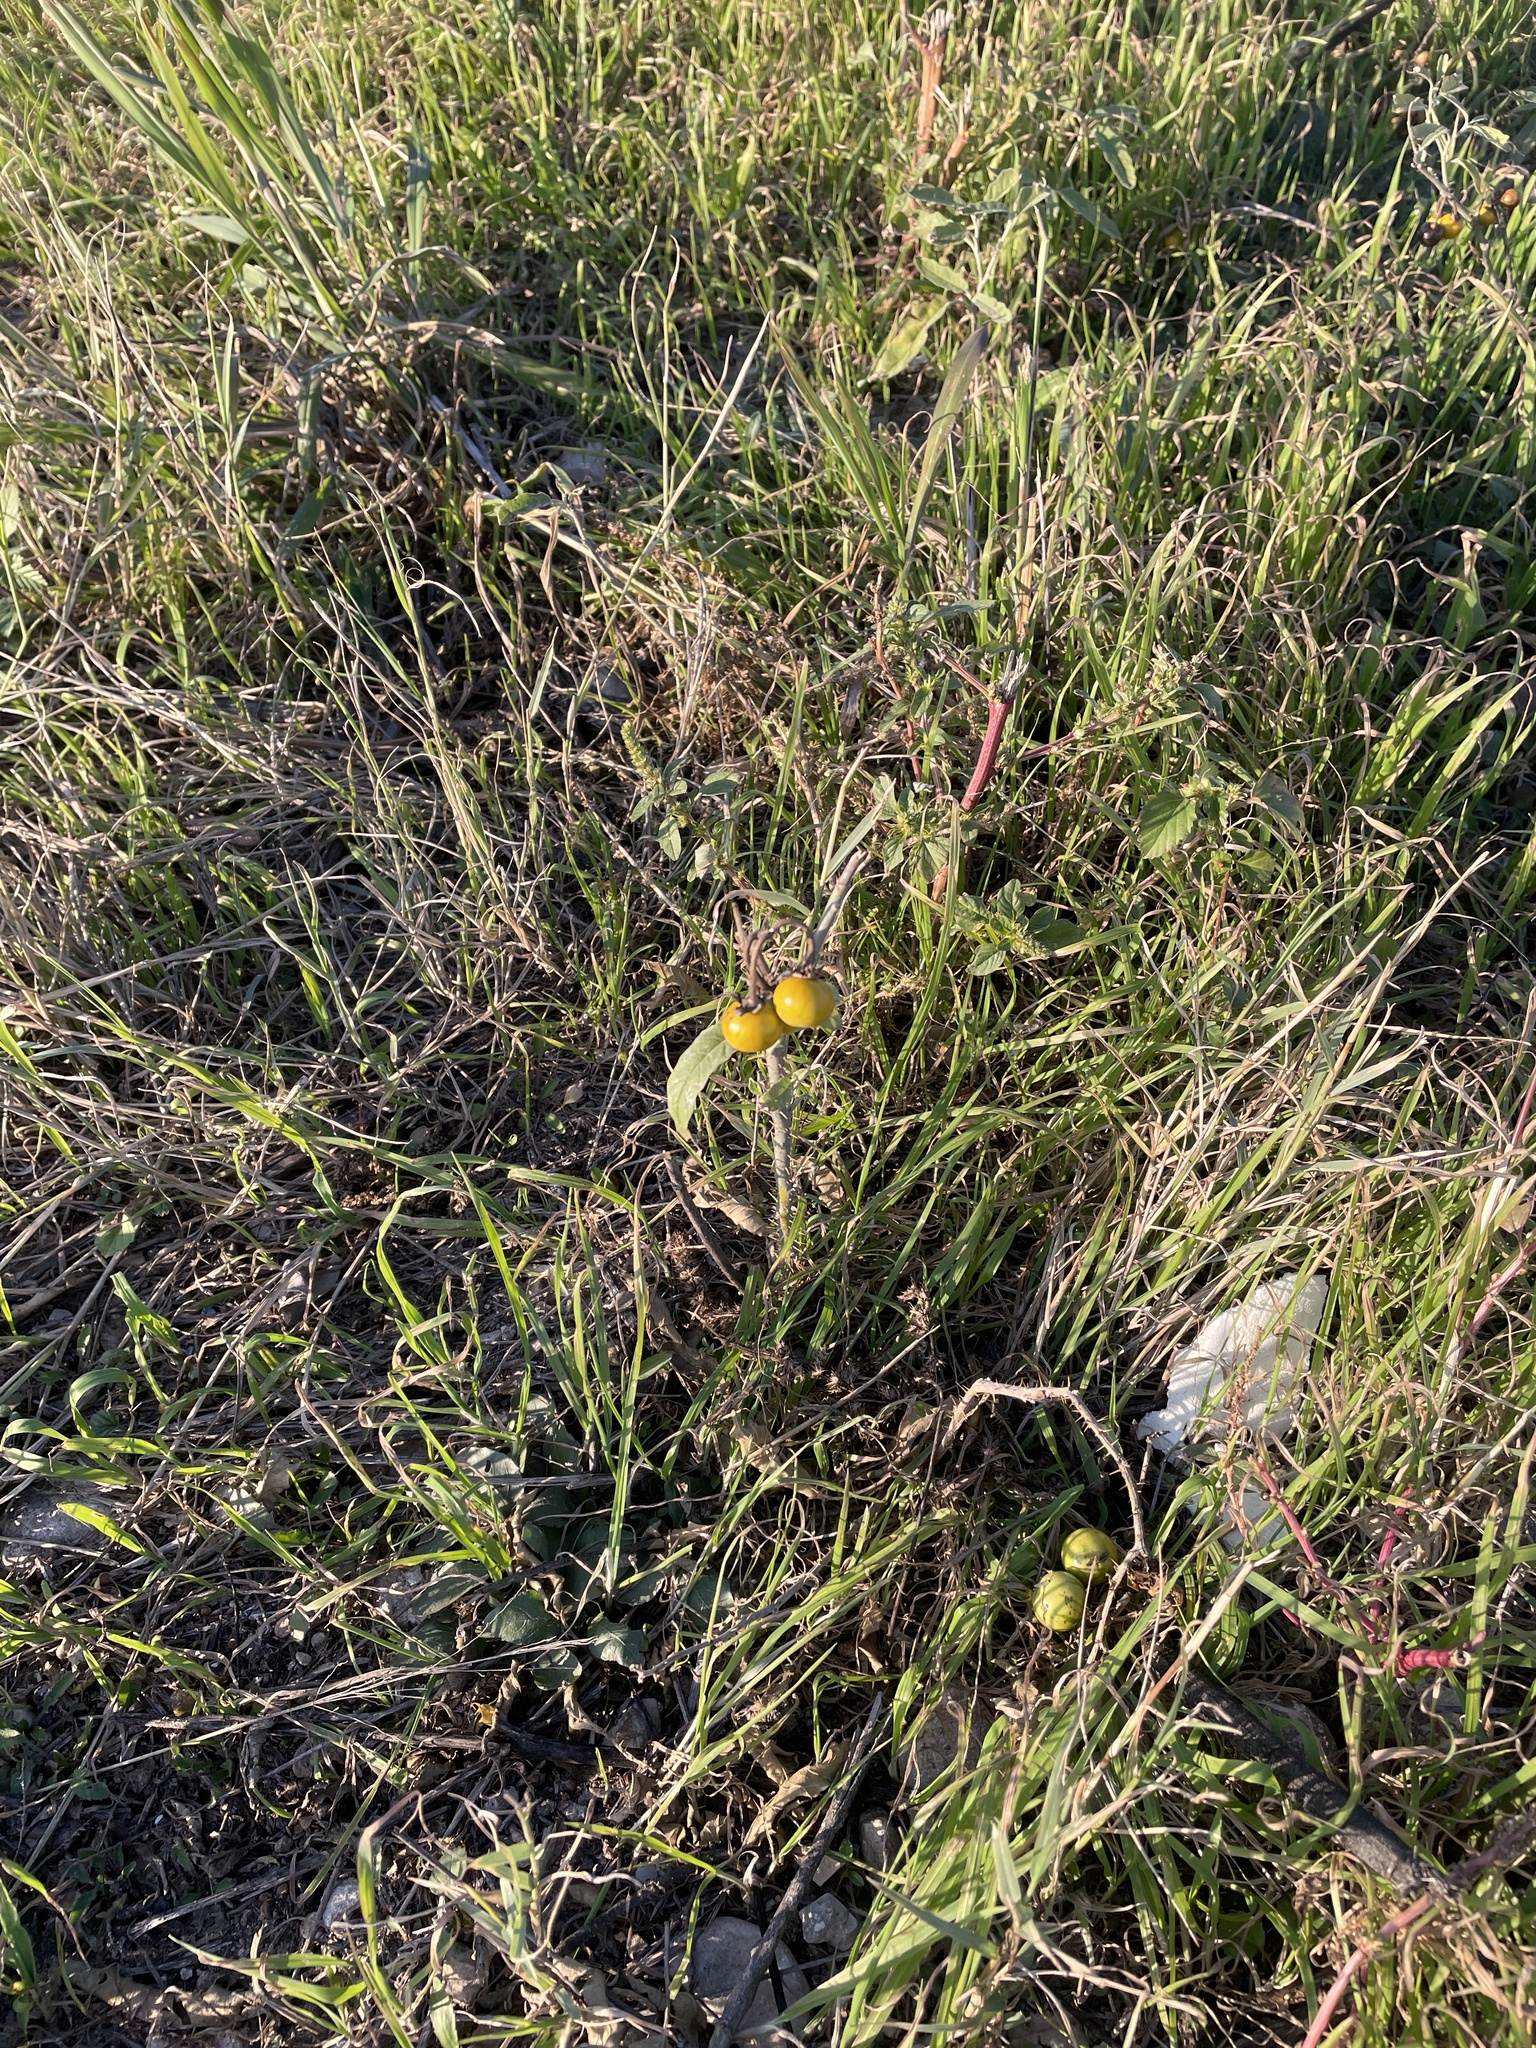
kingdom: Plantae
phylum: Tracheophyta
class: Magnoliopsida
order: Solanales
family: Solanaceae
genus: Solanum
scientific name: Solanum elaeagnifolium
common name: Silverleaf nightshade
